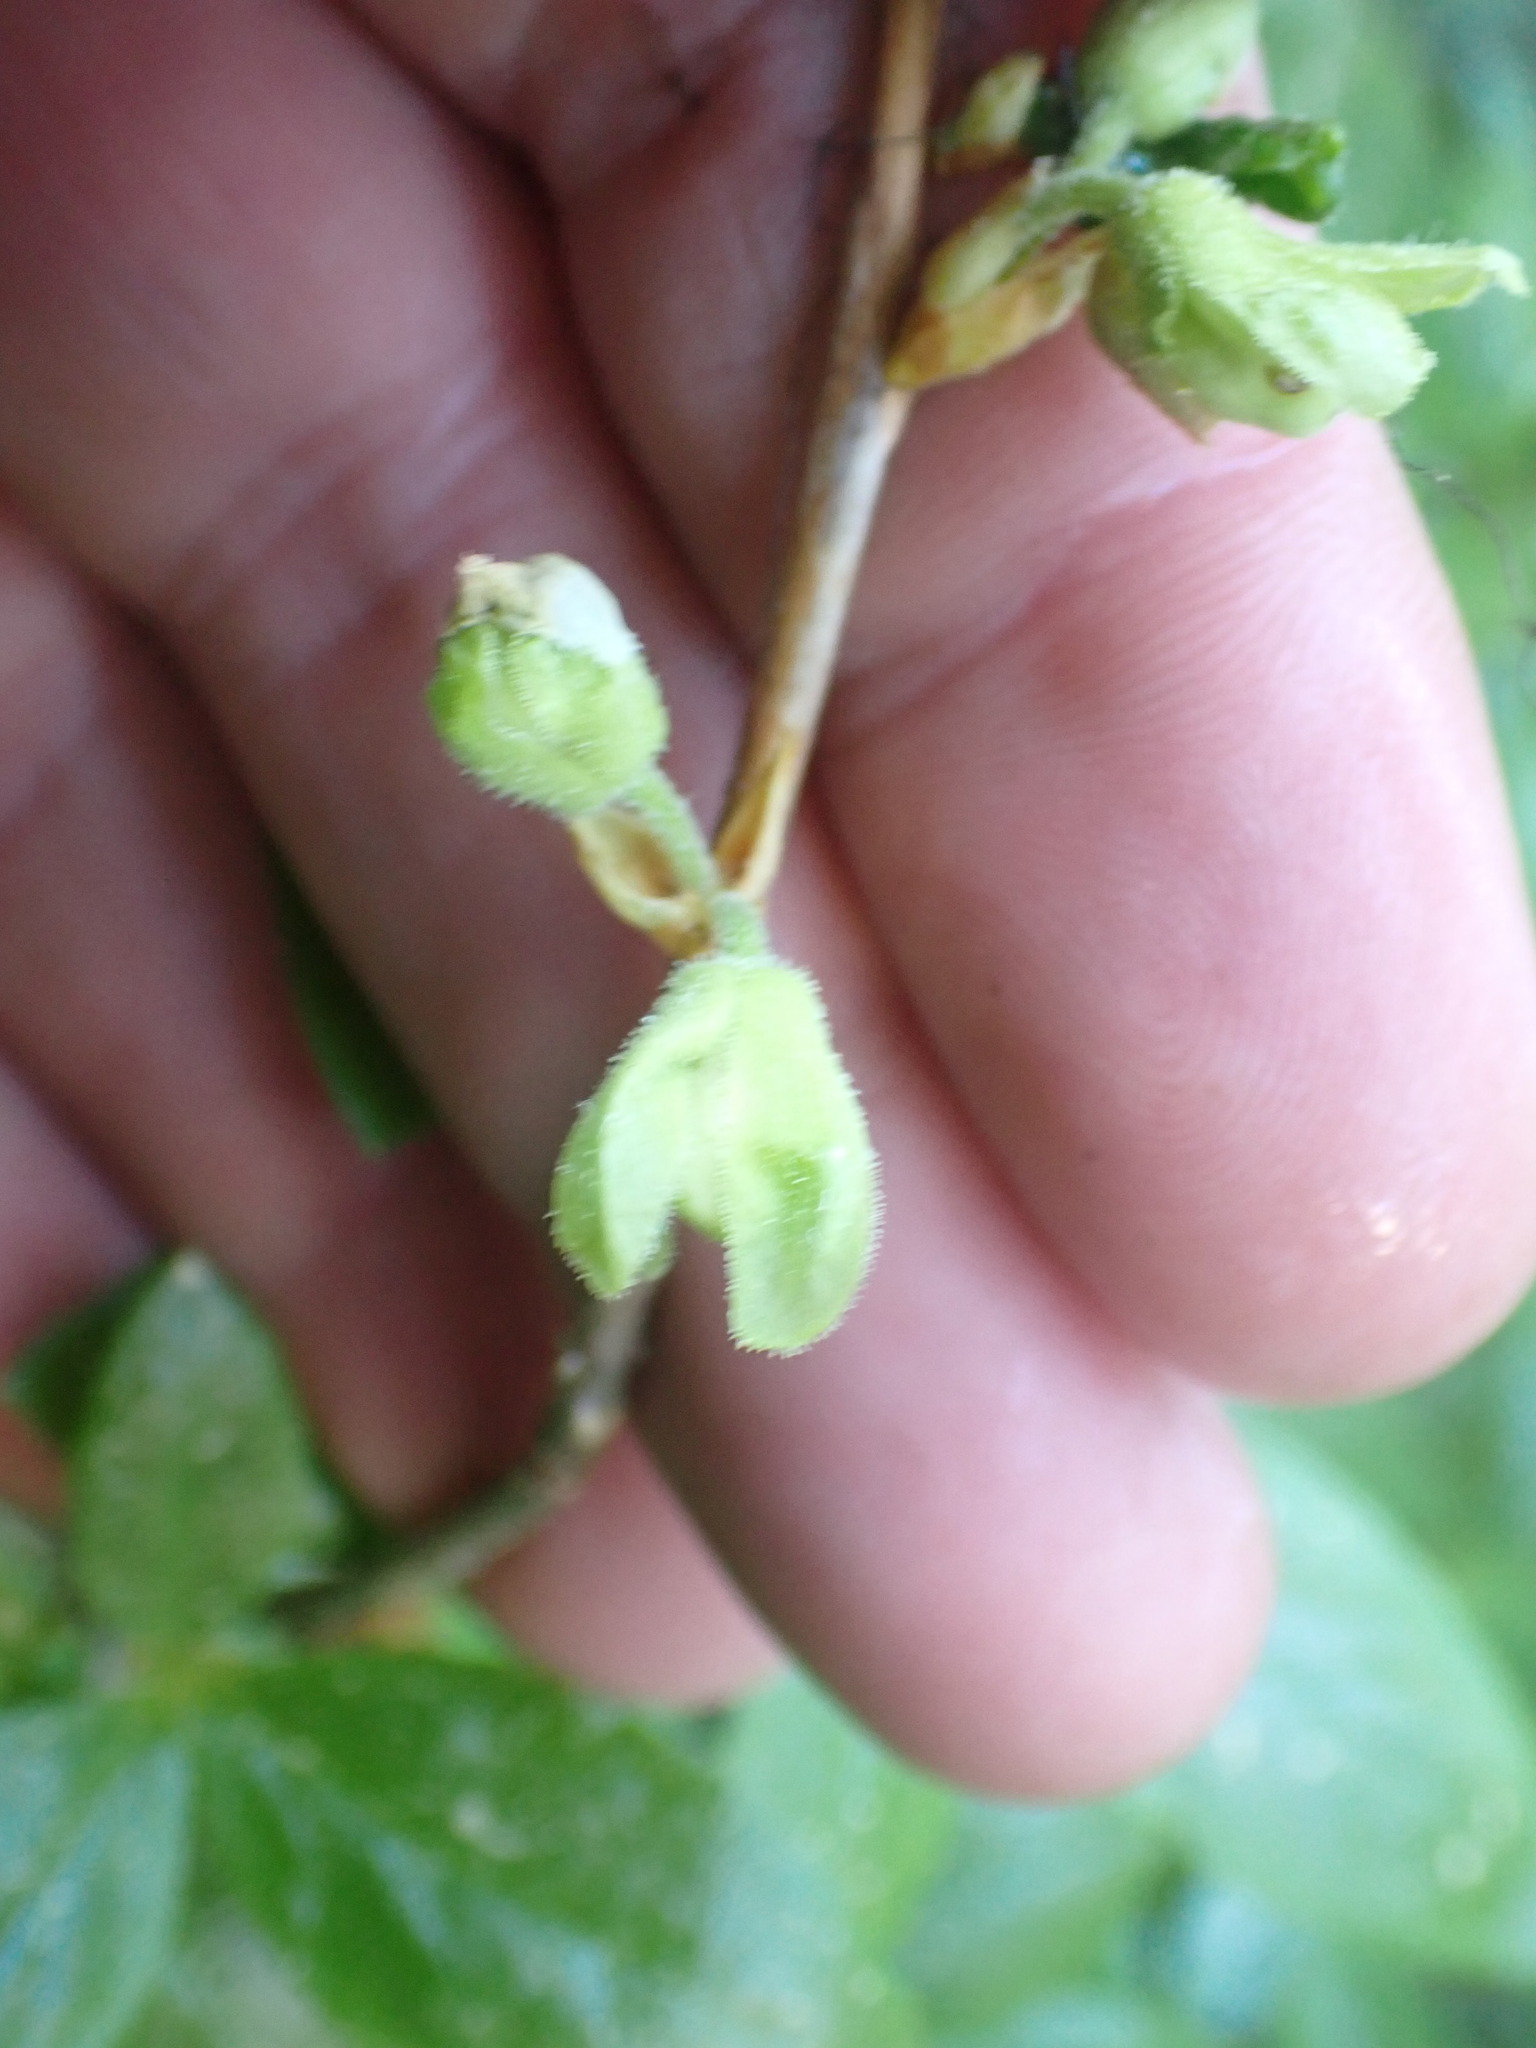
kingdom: Plantae
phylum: Tracheophyta
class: Magnoliopsida
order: Ericales
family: Ericaceae
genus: Rhododendron
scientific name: Rhododendron albiflorum
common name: White rhododendron
